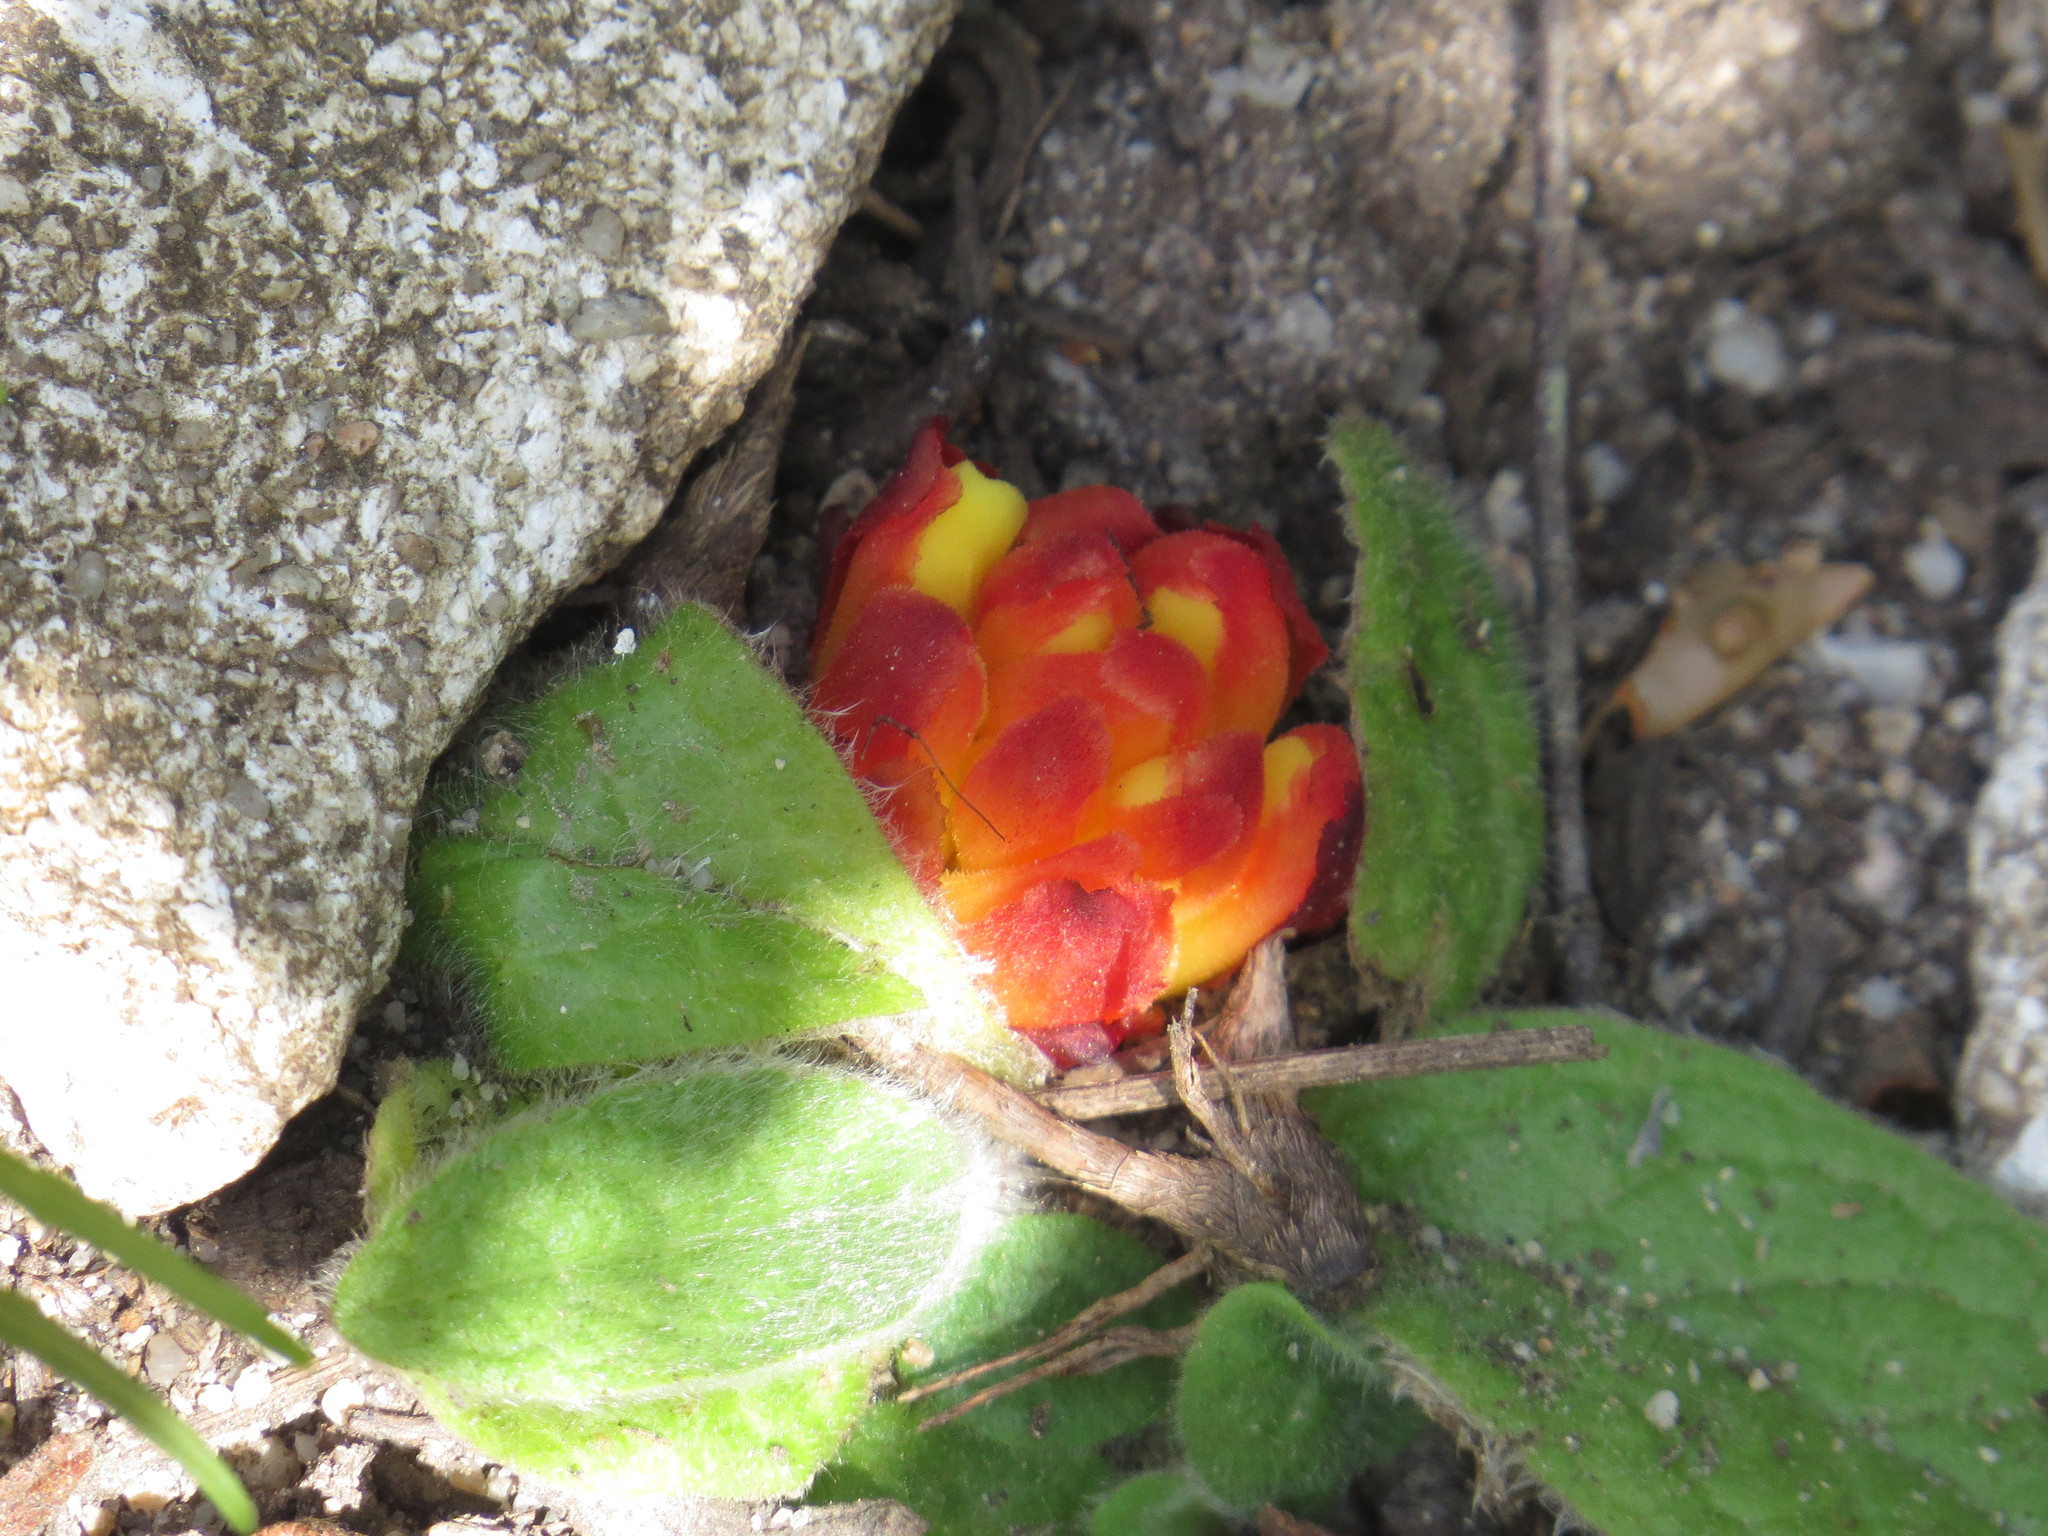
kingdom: Plantae
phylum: Tracheophyta
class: Magnoliopsida
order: Malvales
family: Cytinaceae
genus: Cytinus
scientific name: Cytinus hypocistis
